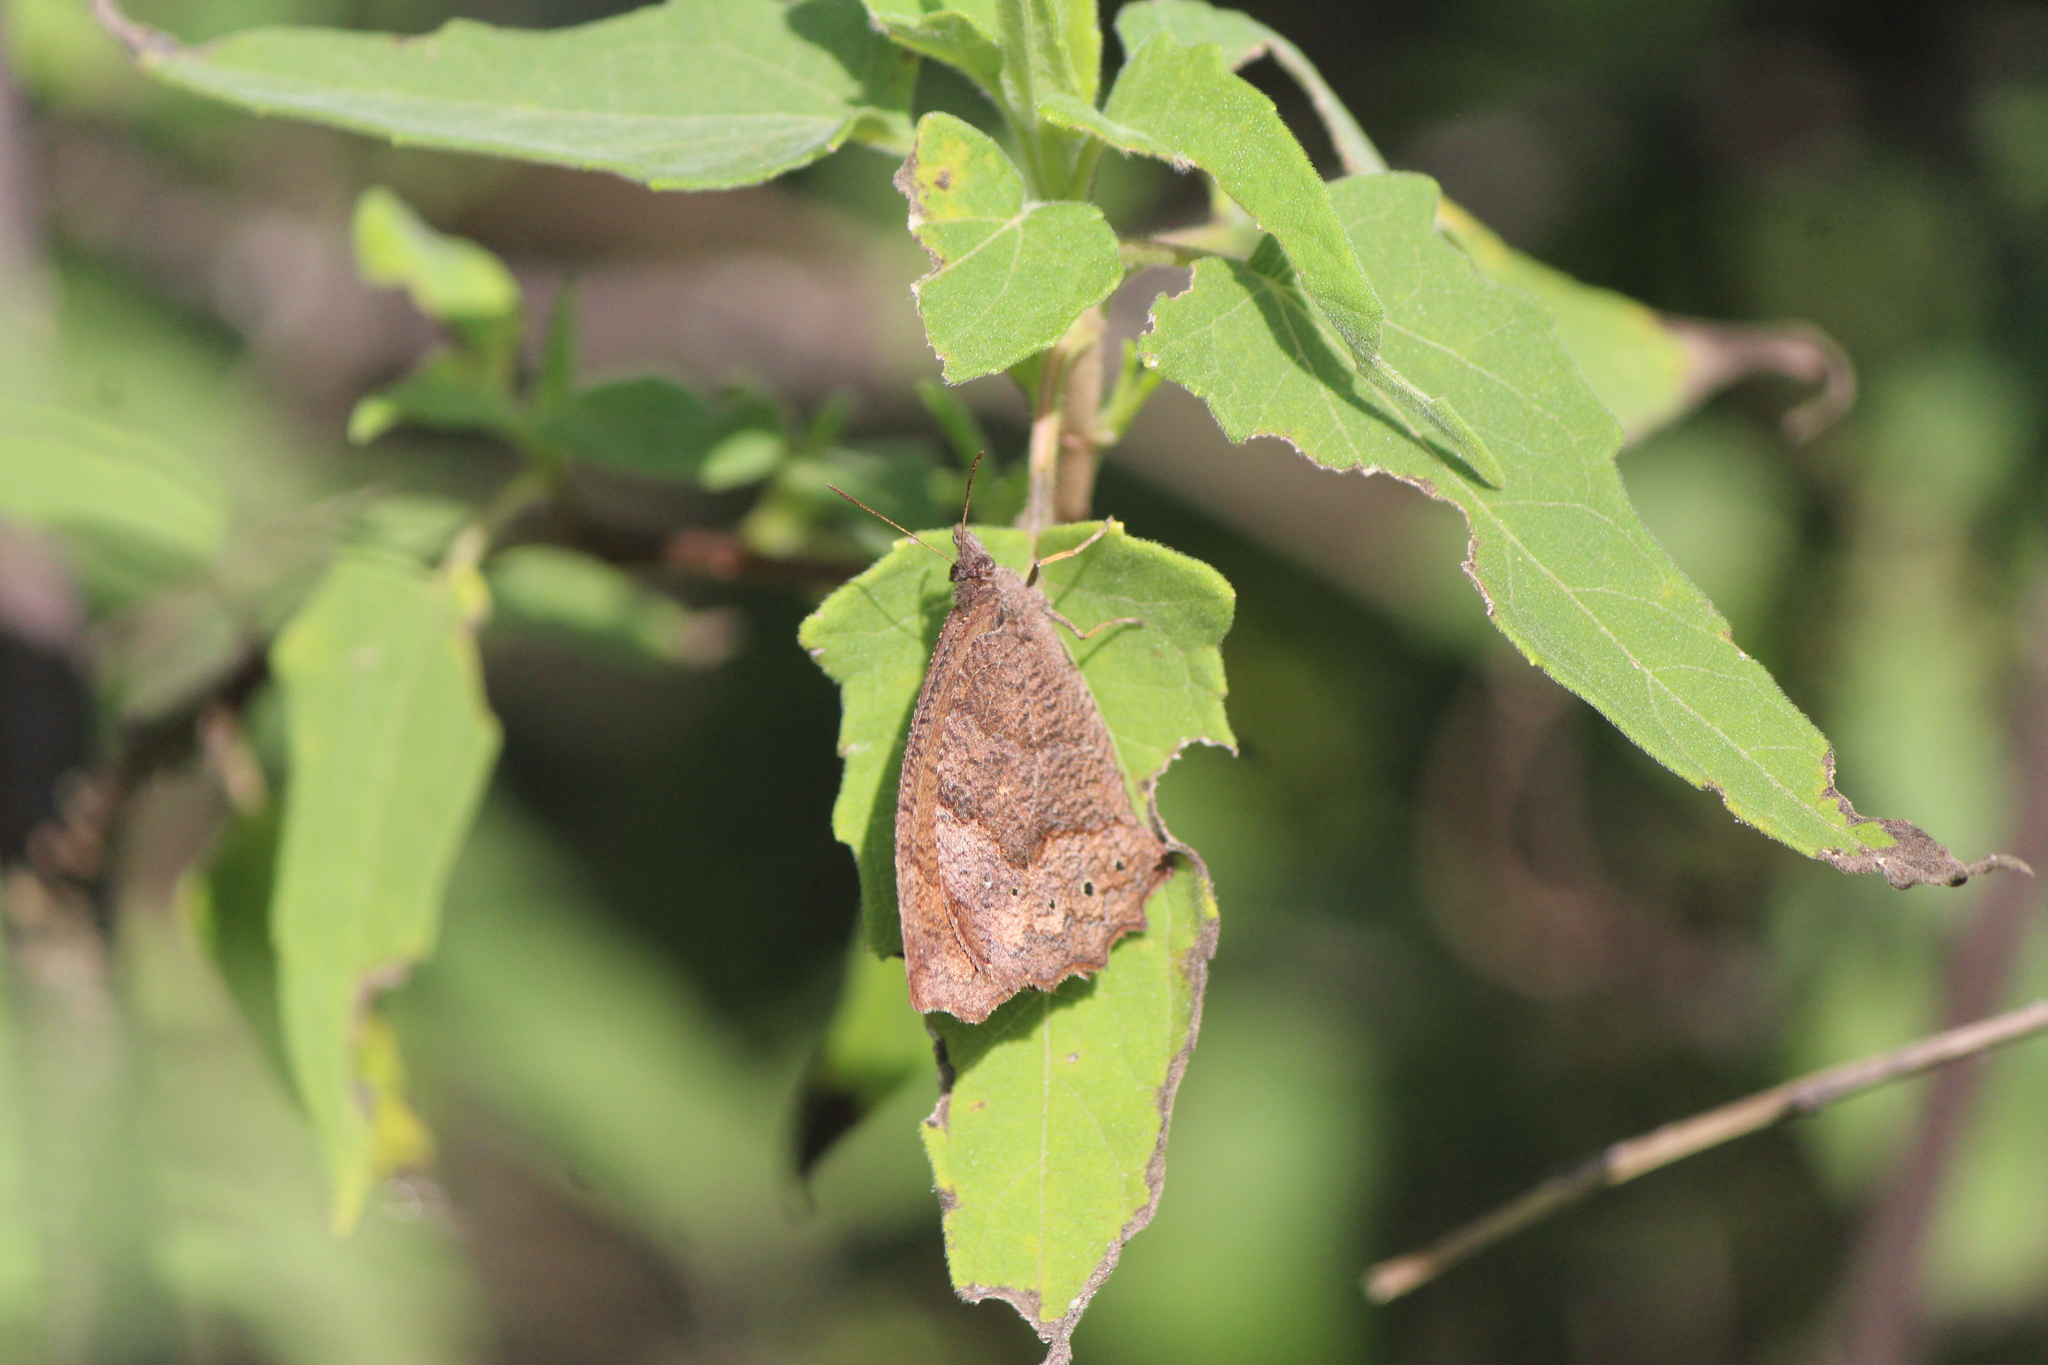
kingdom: Animalia
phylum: Arthropoda
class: Insecta
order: Lepidoptera
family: Nymphalidae
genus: Pindis
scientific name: Pindis squamistriga
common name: Variable satyr
